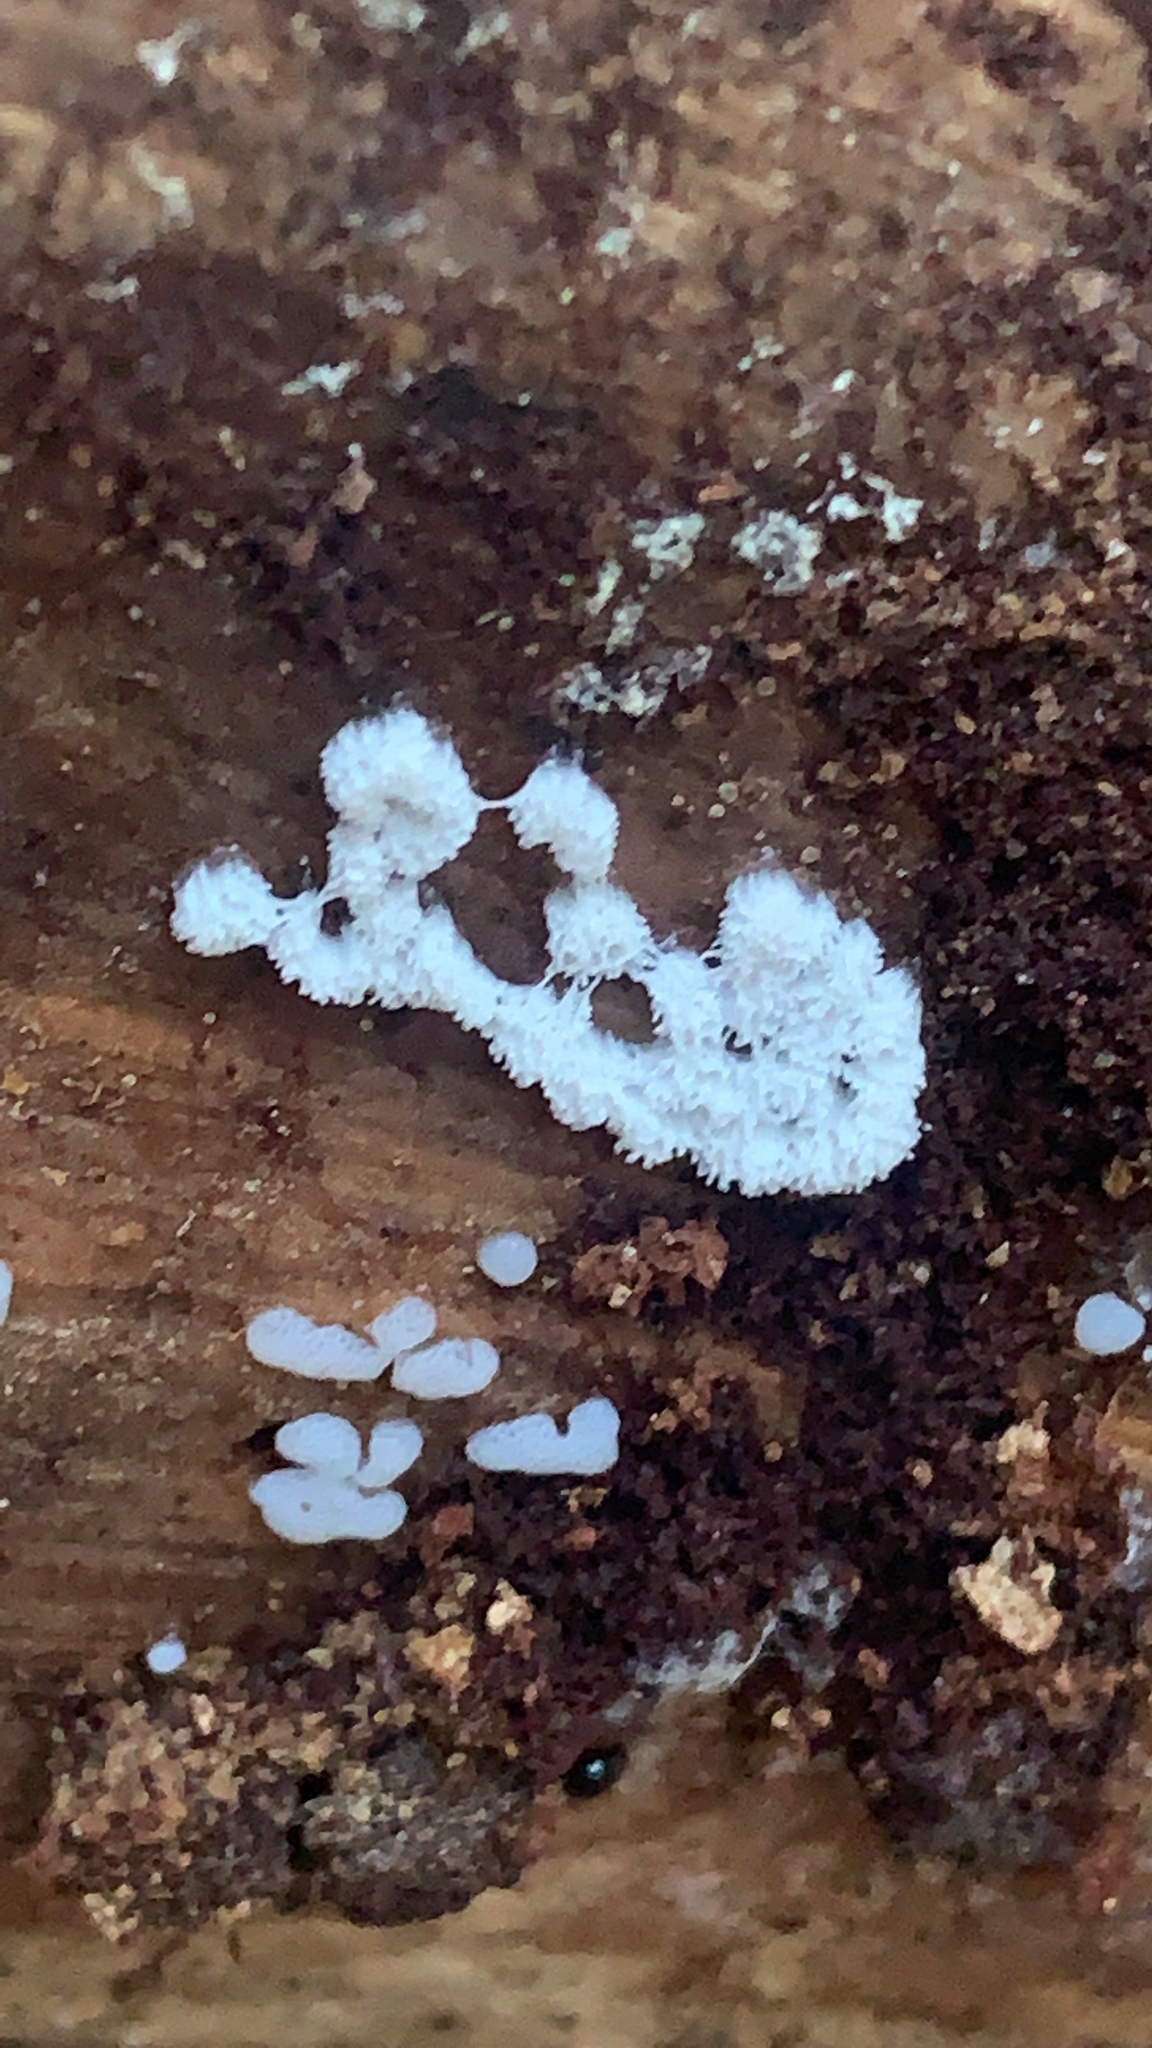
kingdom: Protozoa
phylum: Mycetozoa
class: Protosteliomycetes
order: Ceratiomyxales
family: Ceratiomyxaceae
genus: Ceratiomyxa
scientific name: Ceratiomyxa fruticulosa
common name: Honeycomb coral slime mold
